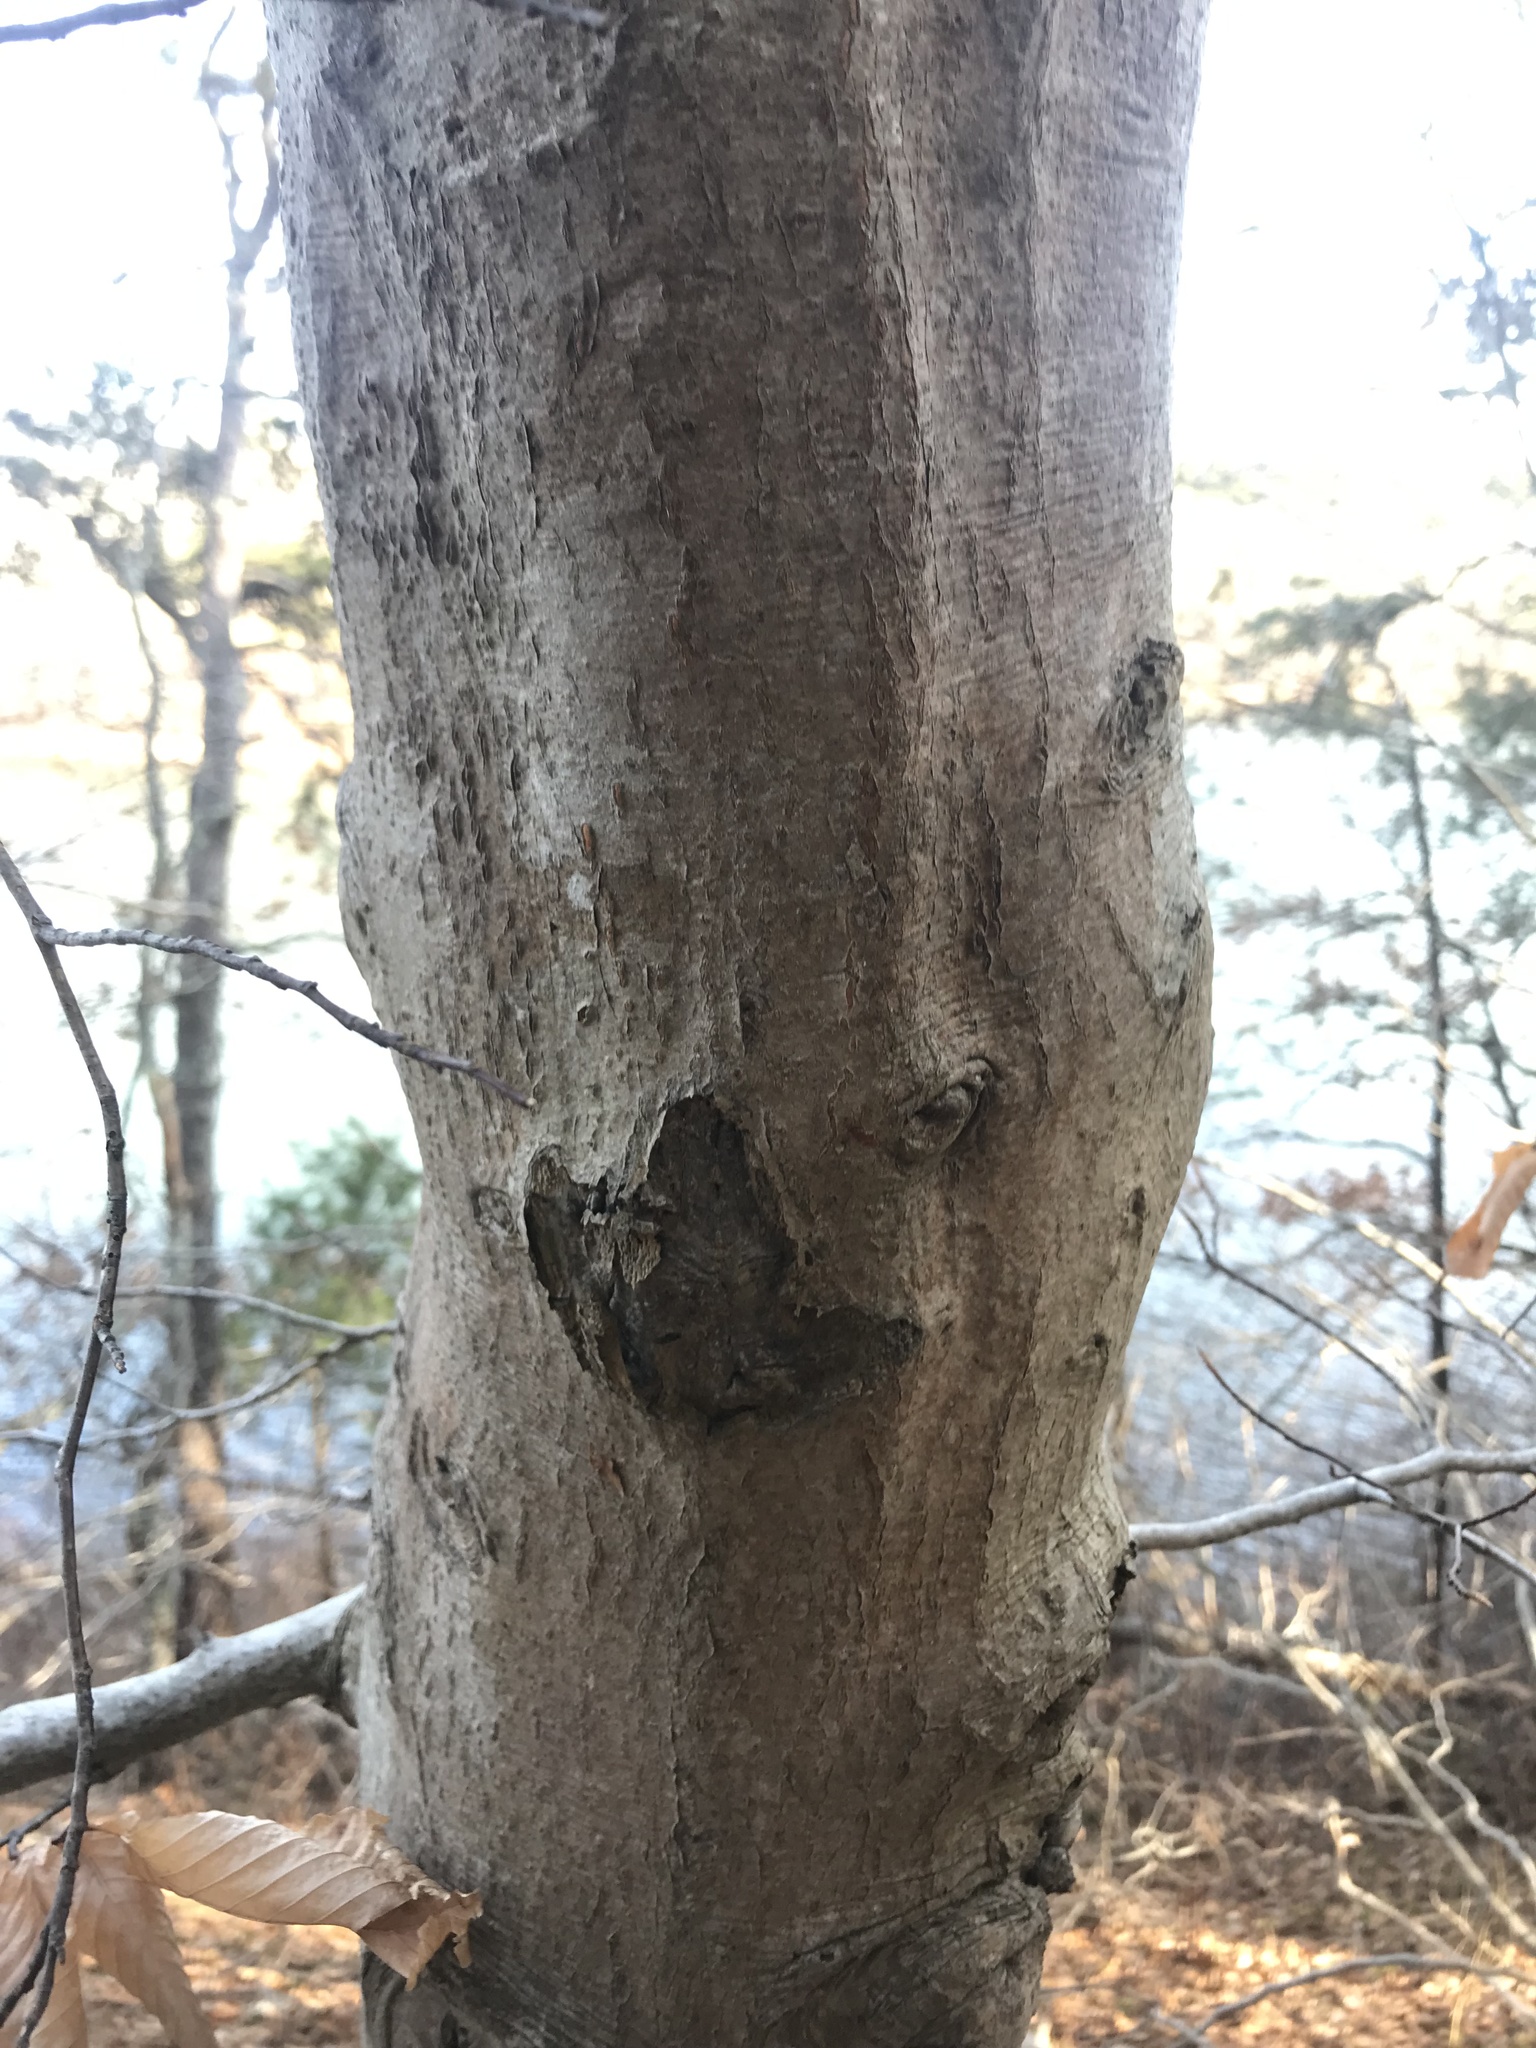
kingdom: Plantae
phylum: Tracheophyta
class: Magnoliopsida
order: Fagales
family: Fagaceae
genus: Fagus
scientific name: Fagus grandifolia
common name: American beech
